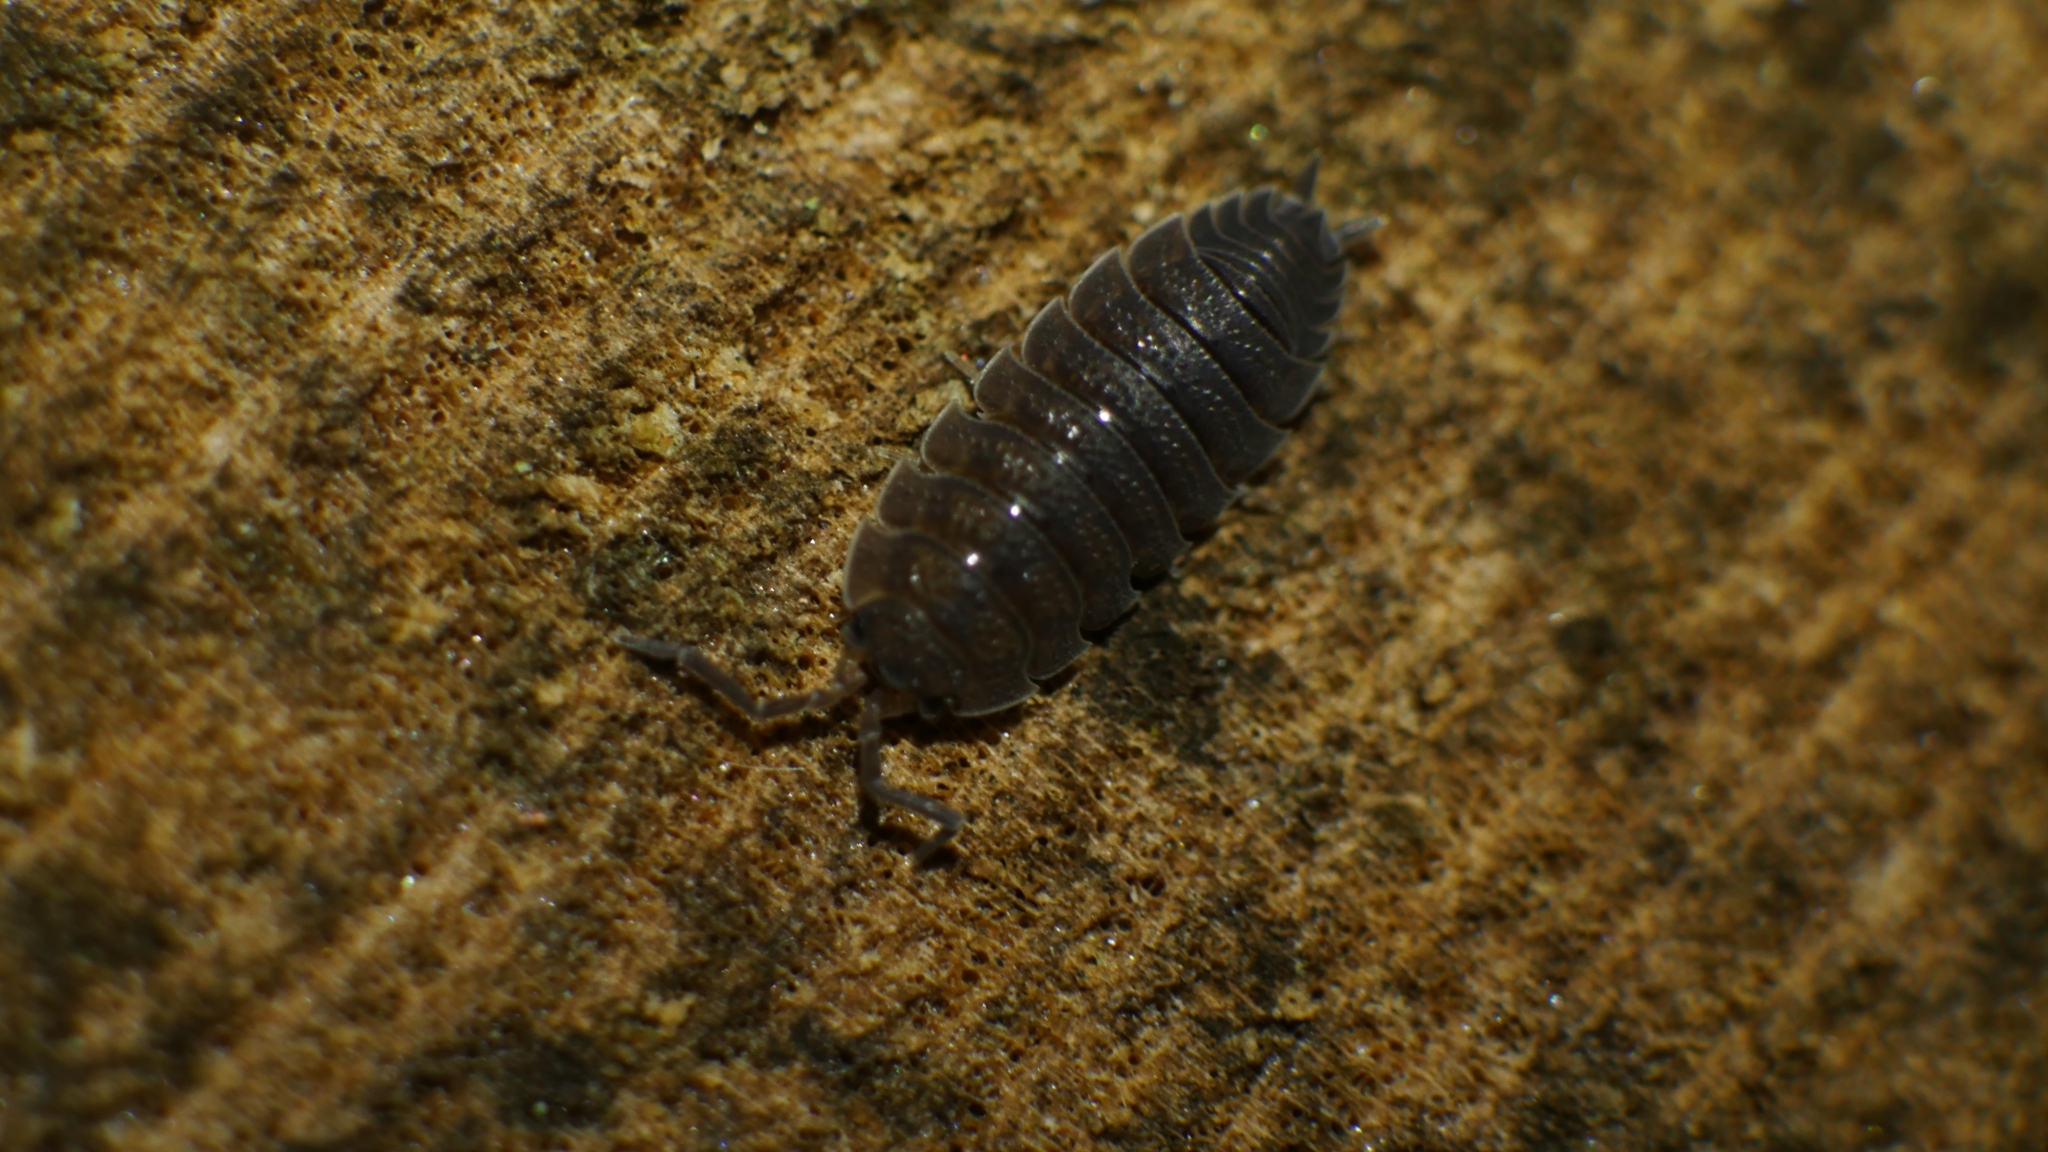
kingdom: Animalia
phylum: Arthropoda
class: Malacostraca
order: Isopoda
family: Porcellionidae
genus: Porcellio
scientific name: Porcellio scaber
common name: Common rough woodlouse
